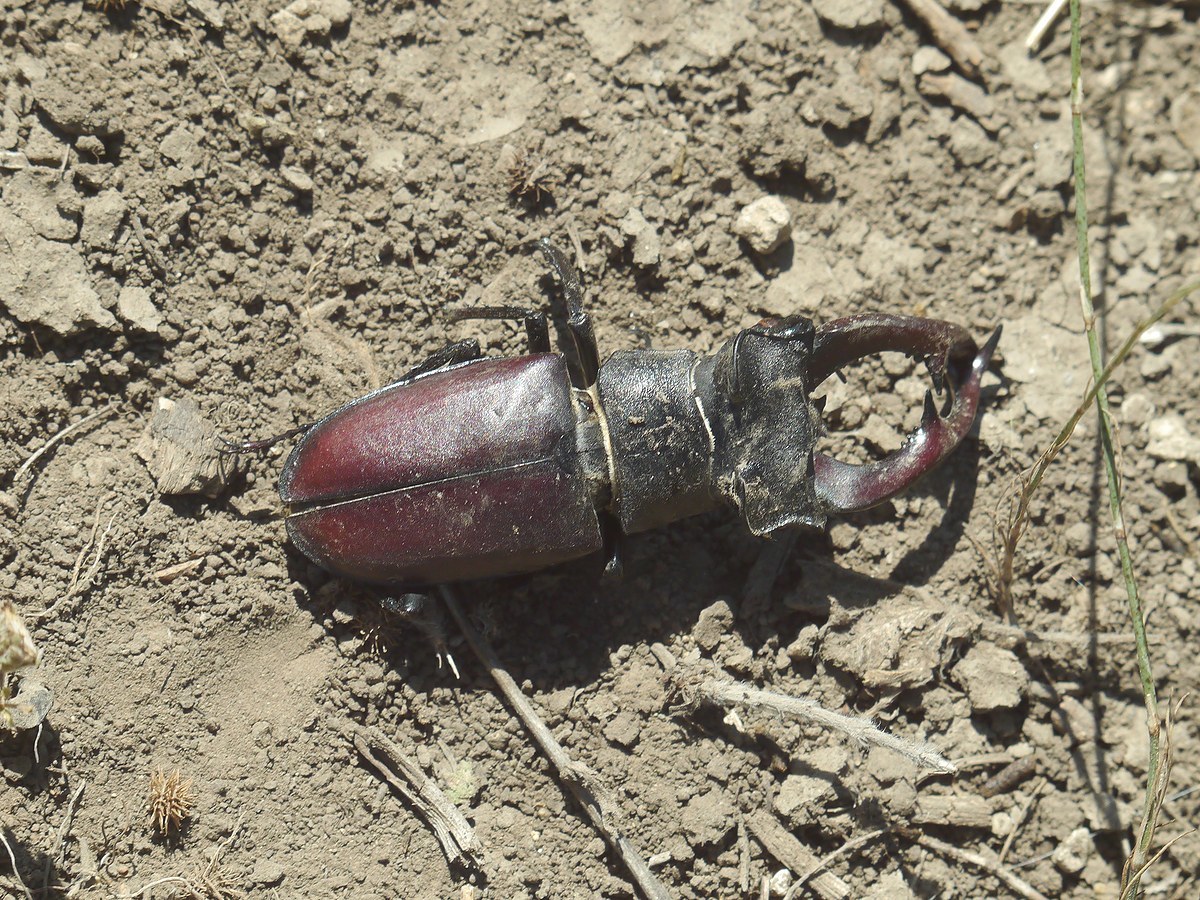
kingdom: Animalia
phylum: Arthropoda
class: Insecta
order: Coleoptera
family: Lucanidae
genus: Lucanus
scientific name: Lucanus cervus
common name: Stag beetle
